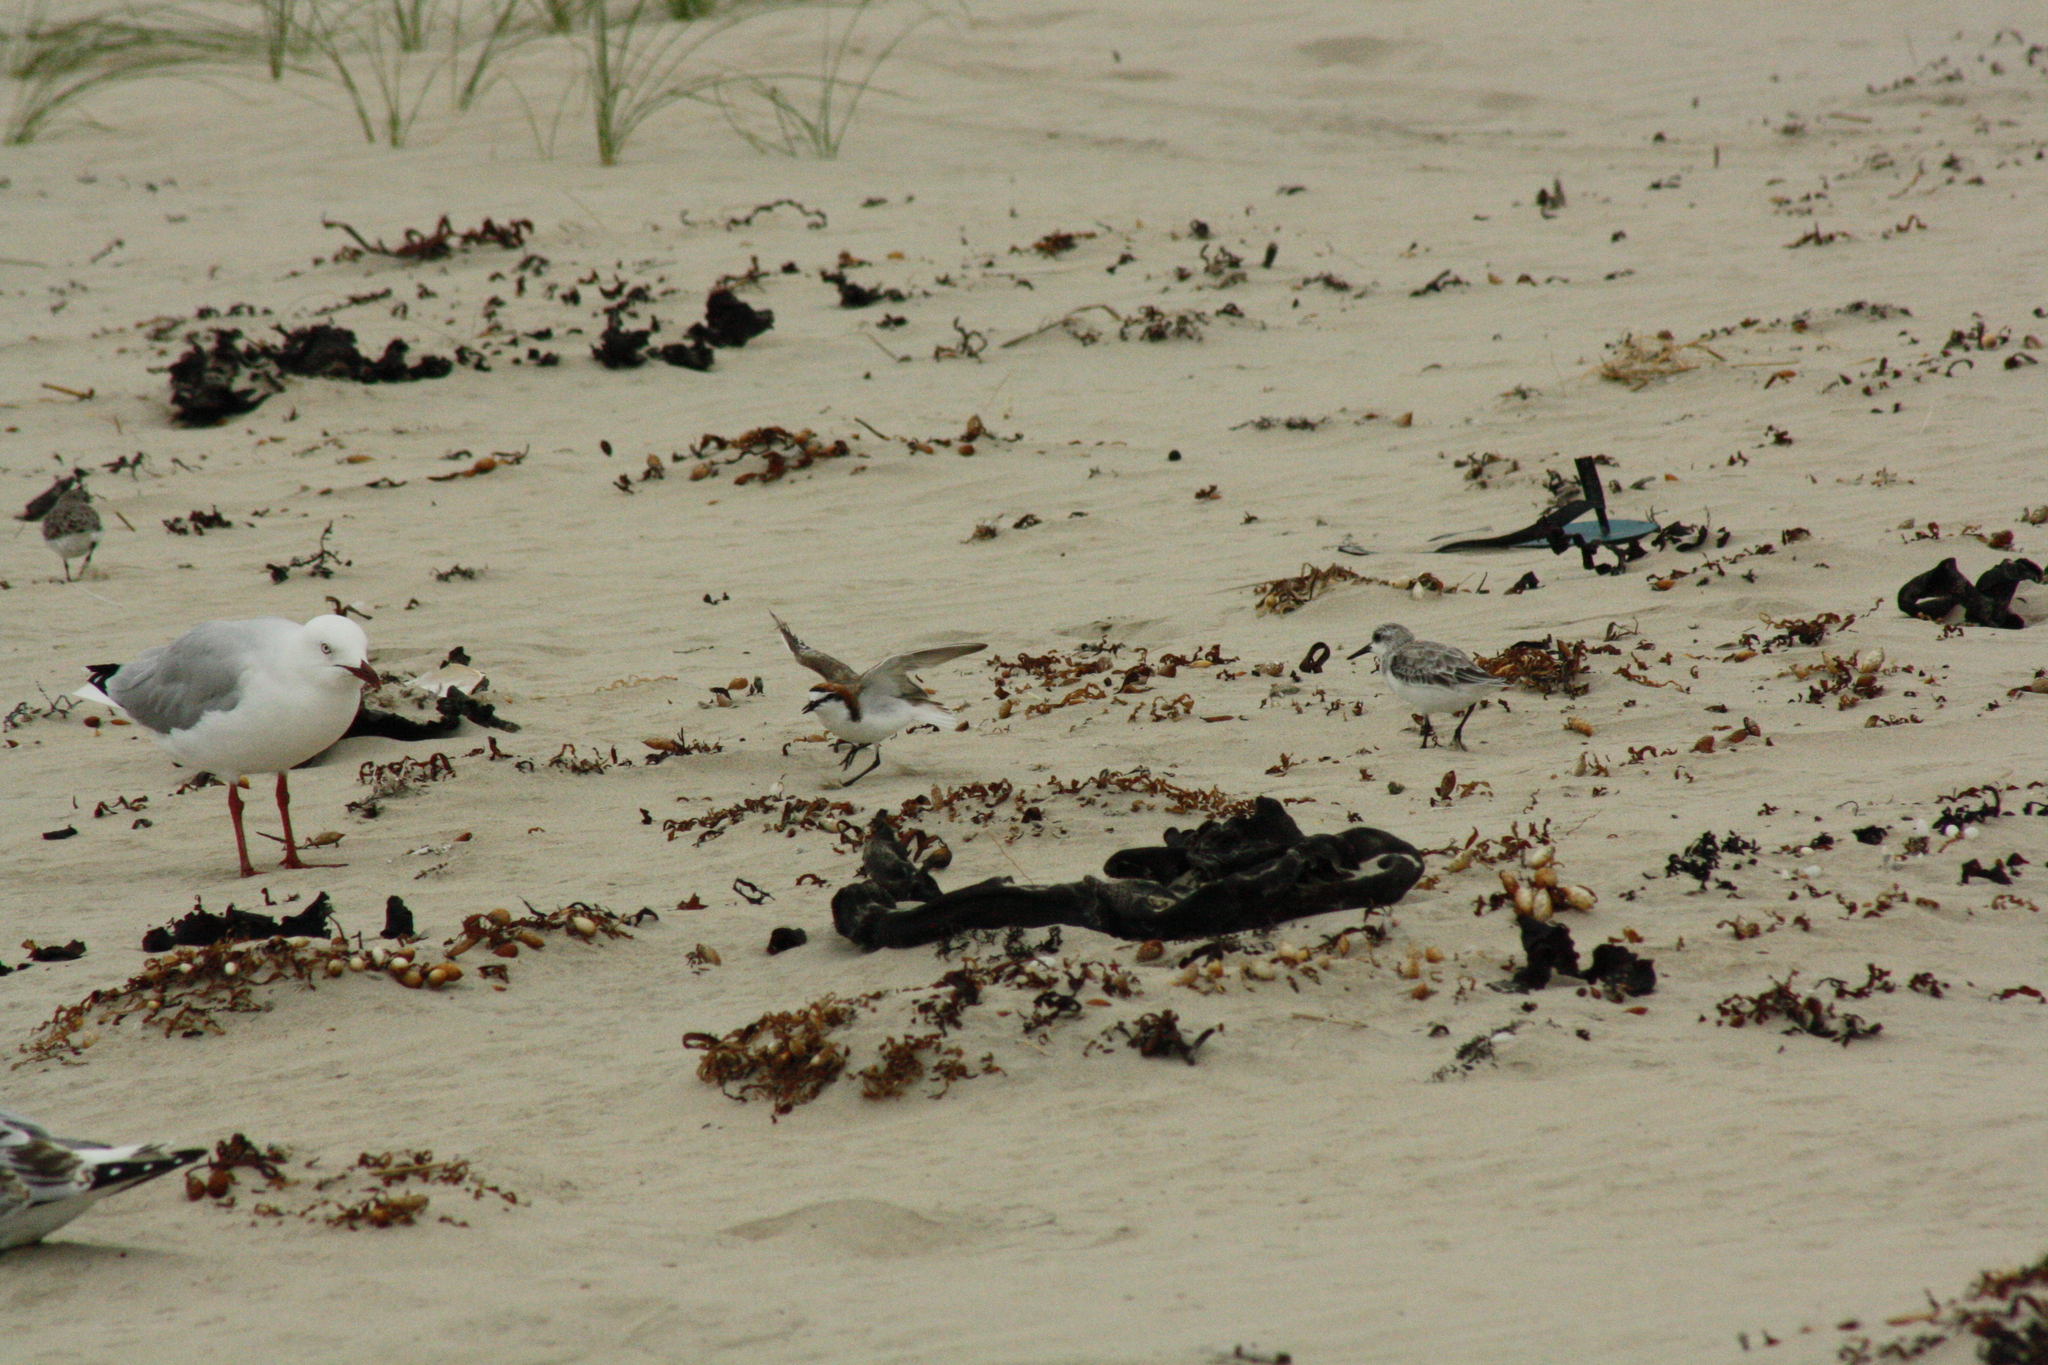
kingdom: Animalia
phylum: Chordata
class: Aves
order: Charadriiformes
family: Charadriidae
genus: Anarhynchus
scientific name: Anarhynchus
